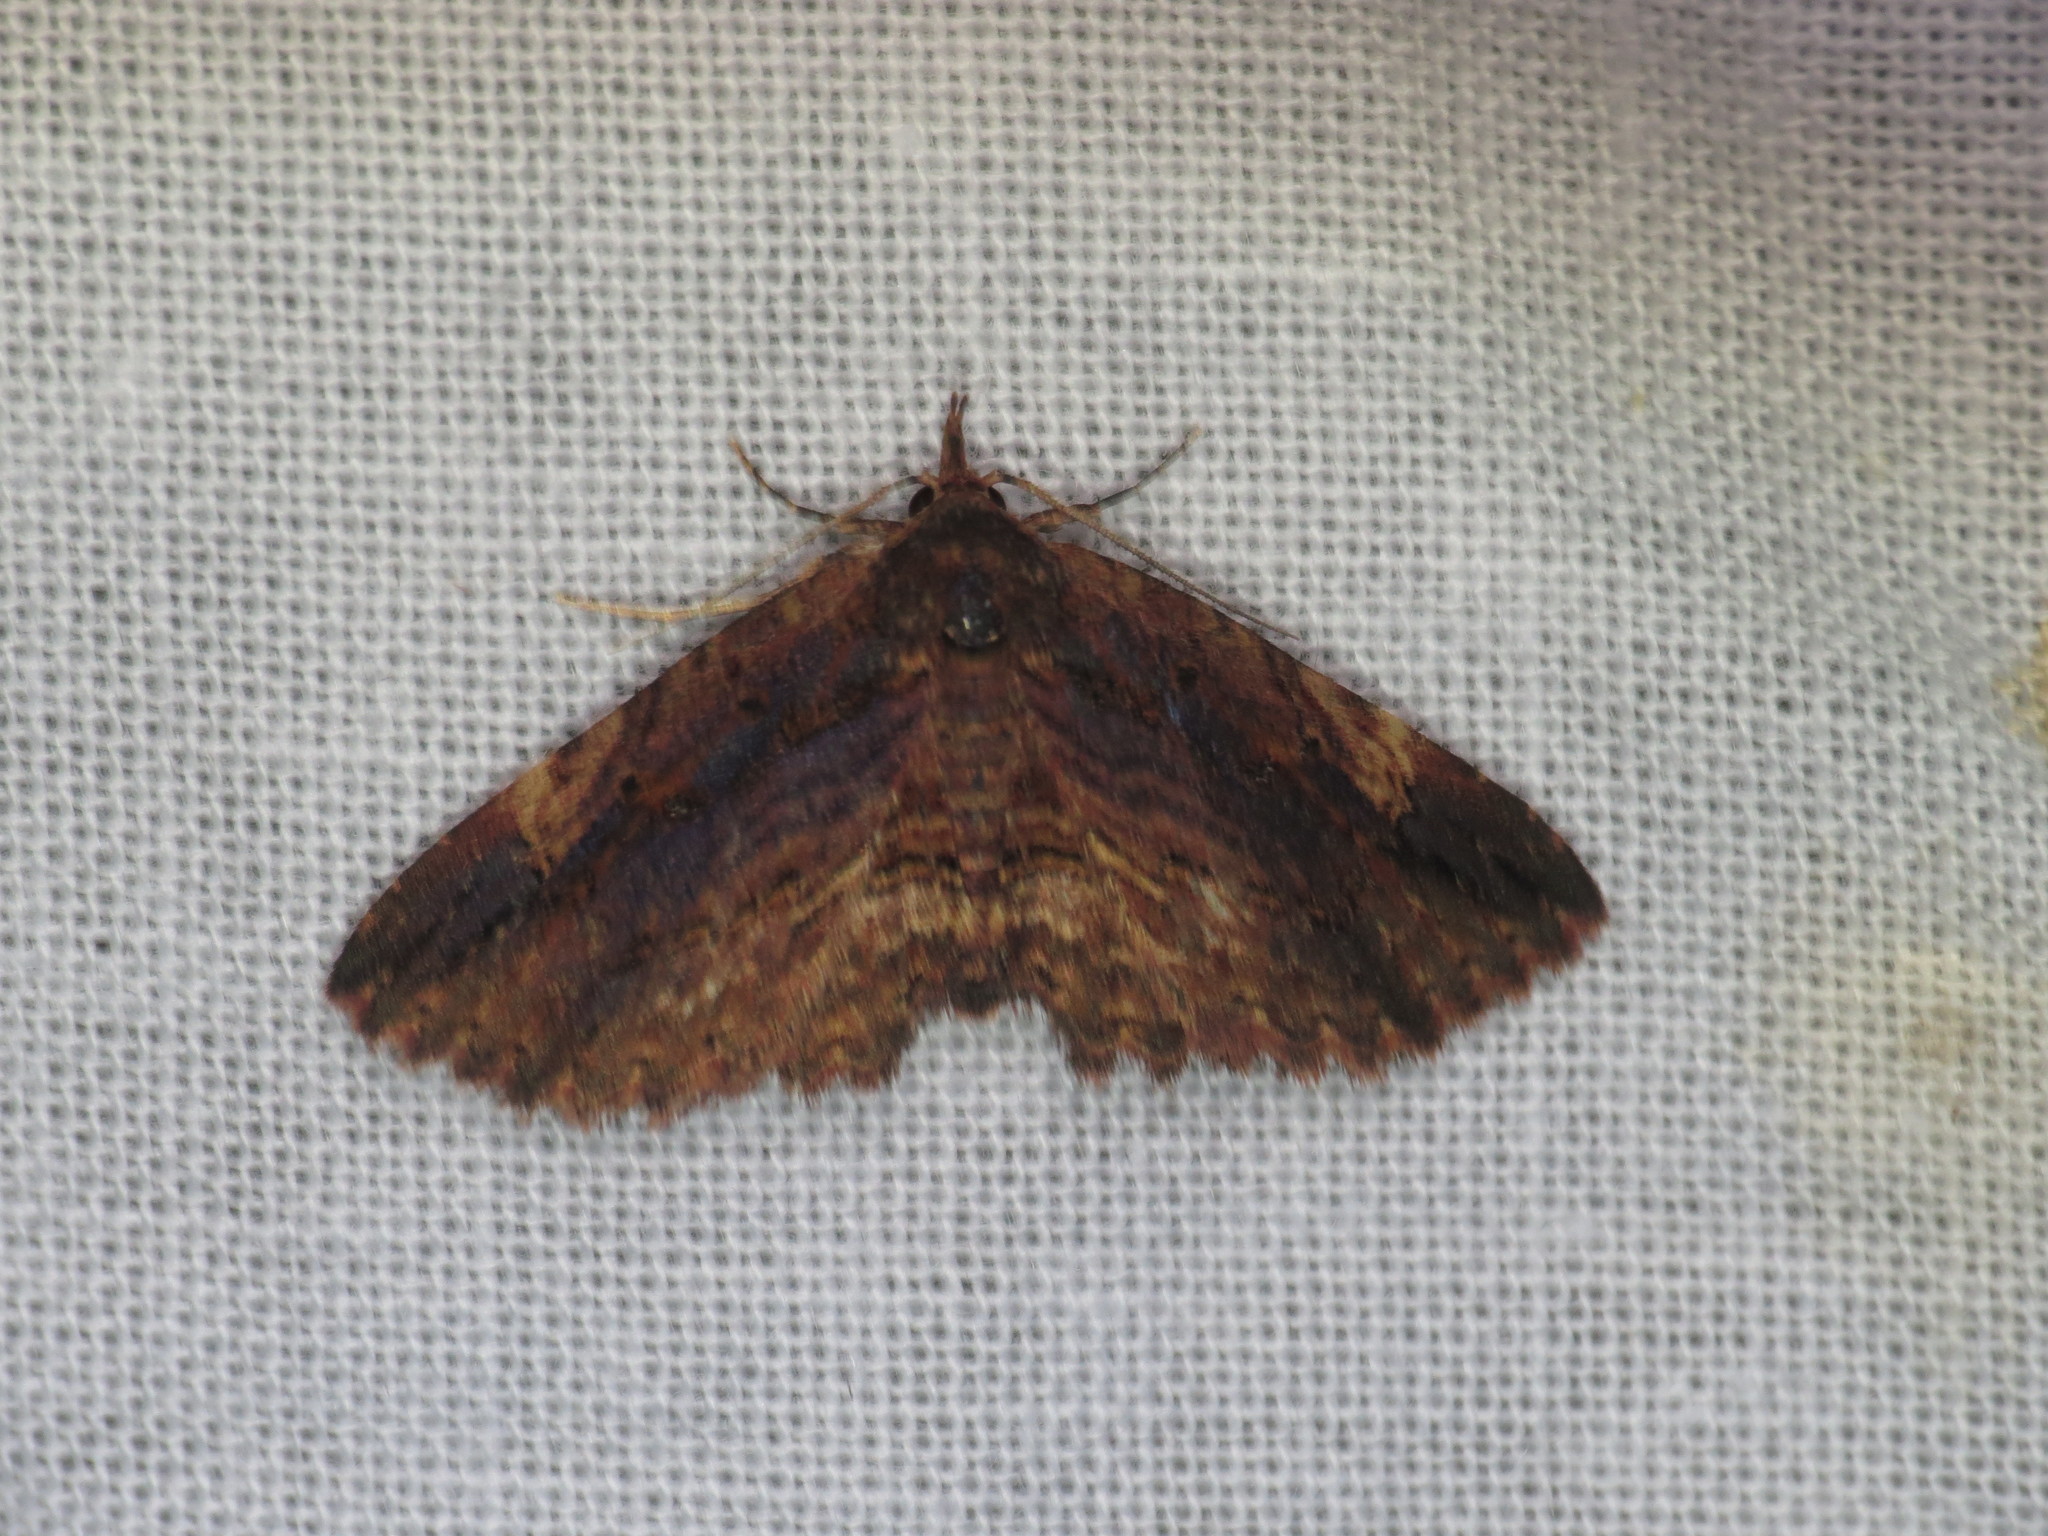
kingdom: Animalia
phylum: Arthropoda
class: Insecta
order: Lepidoptera
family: Erebidae
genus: Paonidia
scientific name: Paonidia anthracias
